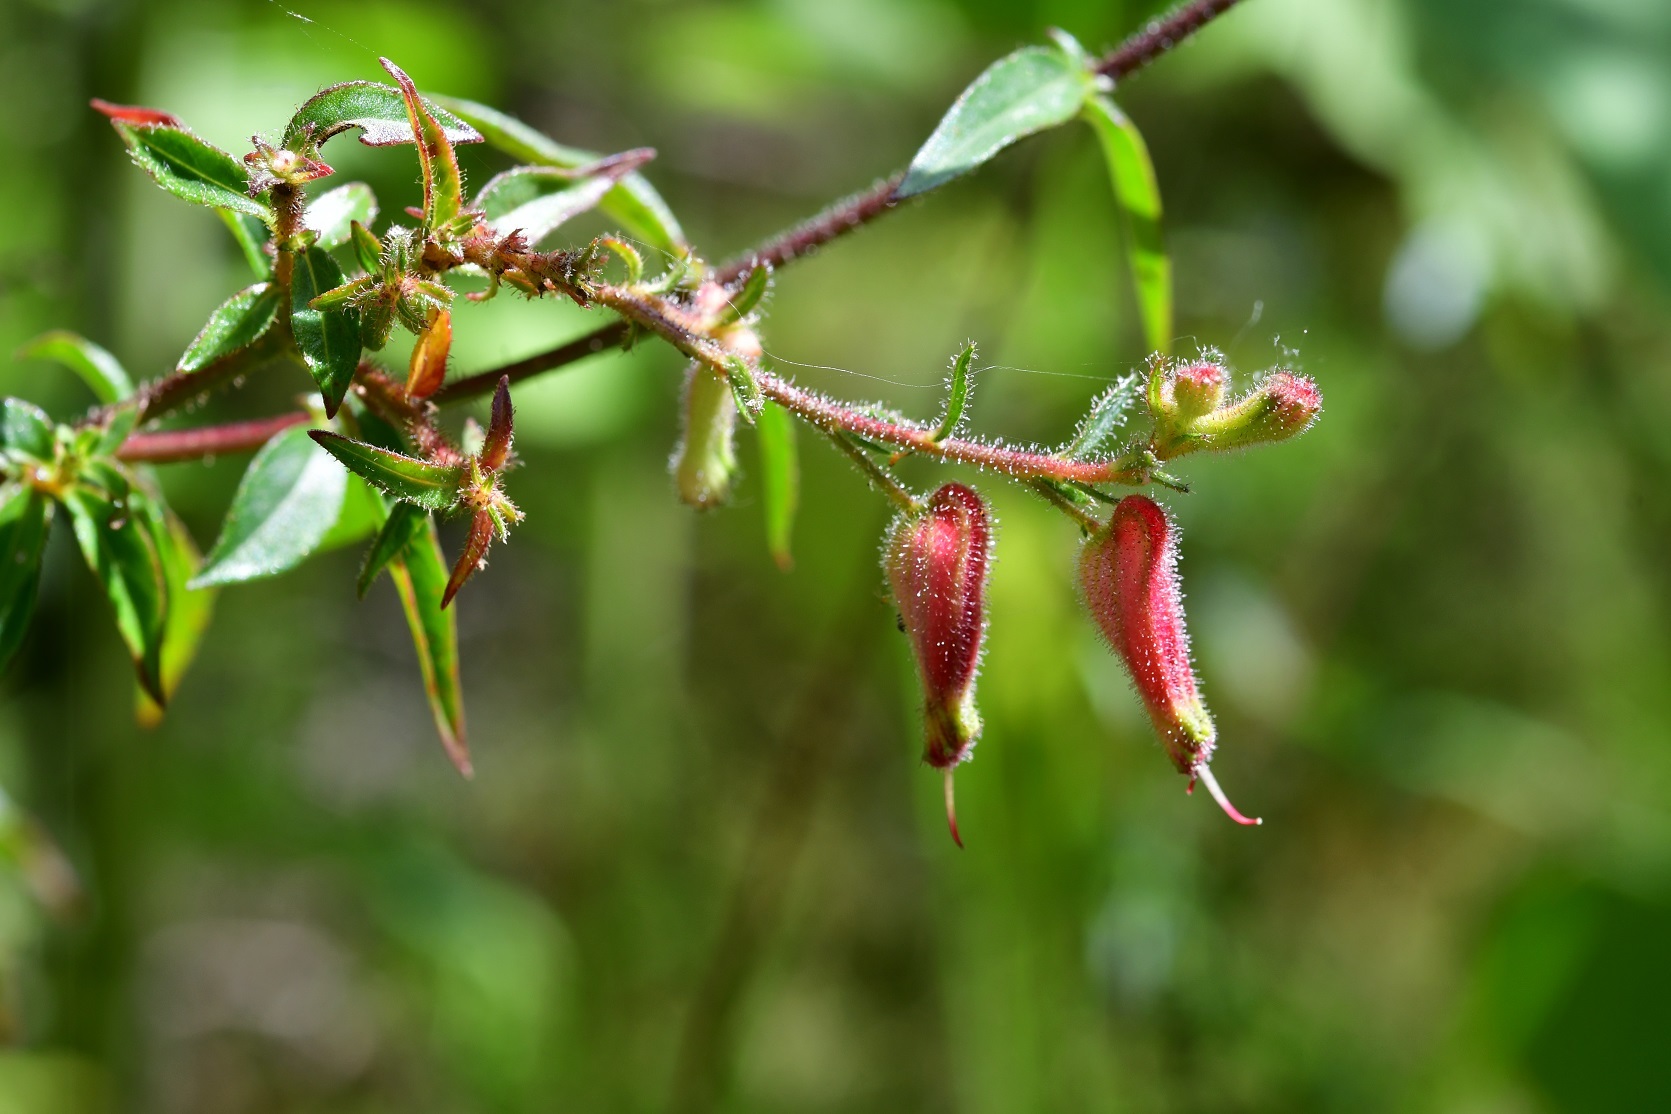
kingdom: Plantae
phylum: Tracheophyta
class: Magnoliopsida
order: Myrtales
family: Lythraceae
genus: Cuphea
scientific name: Cuphea hookeriana
